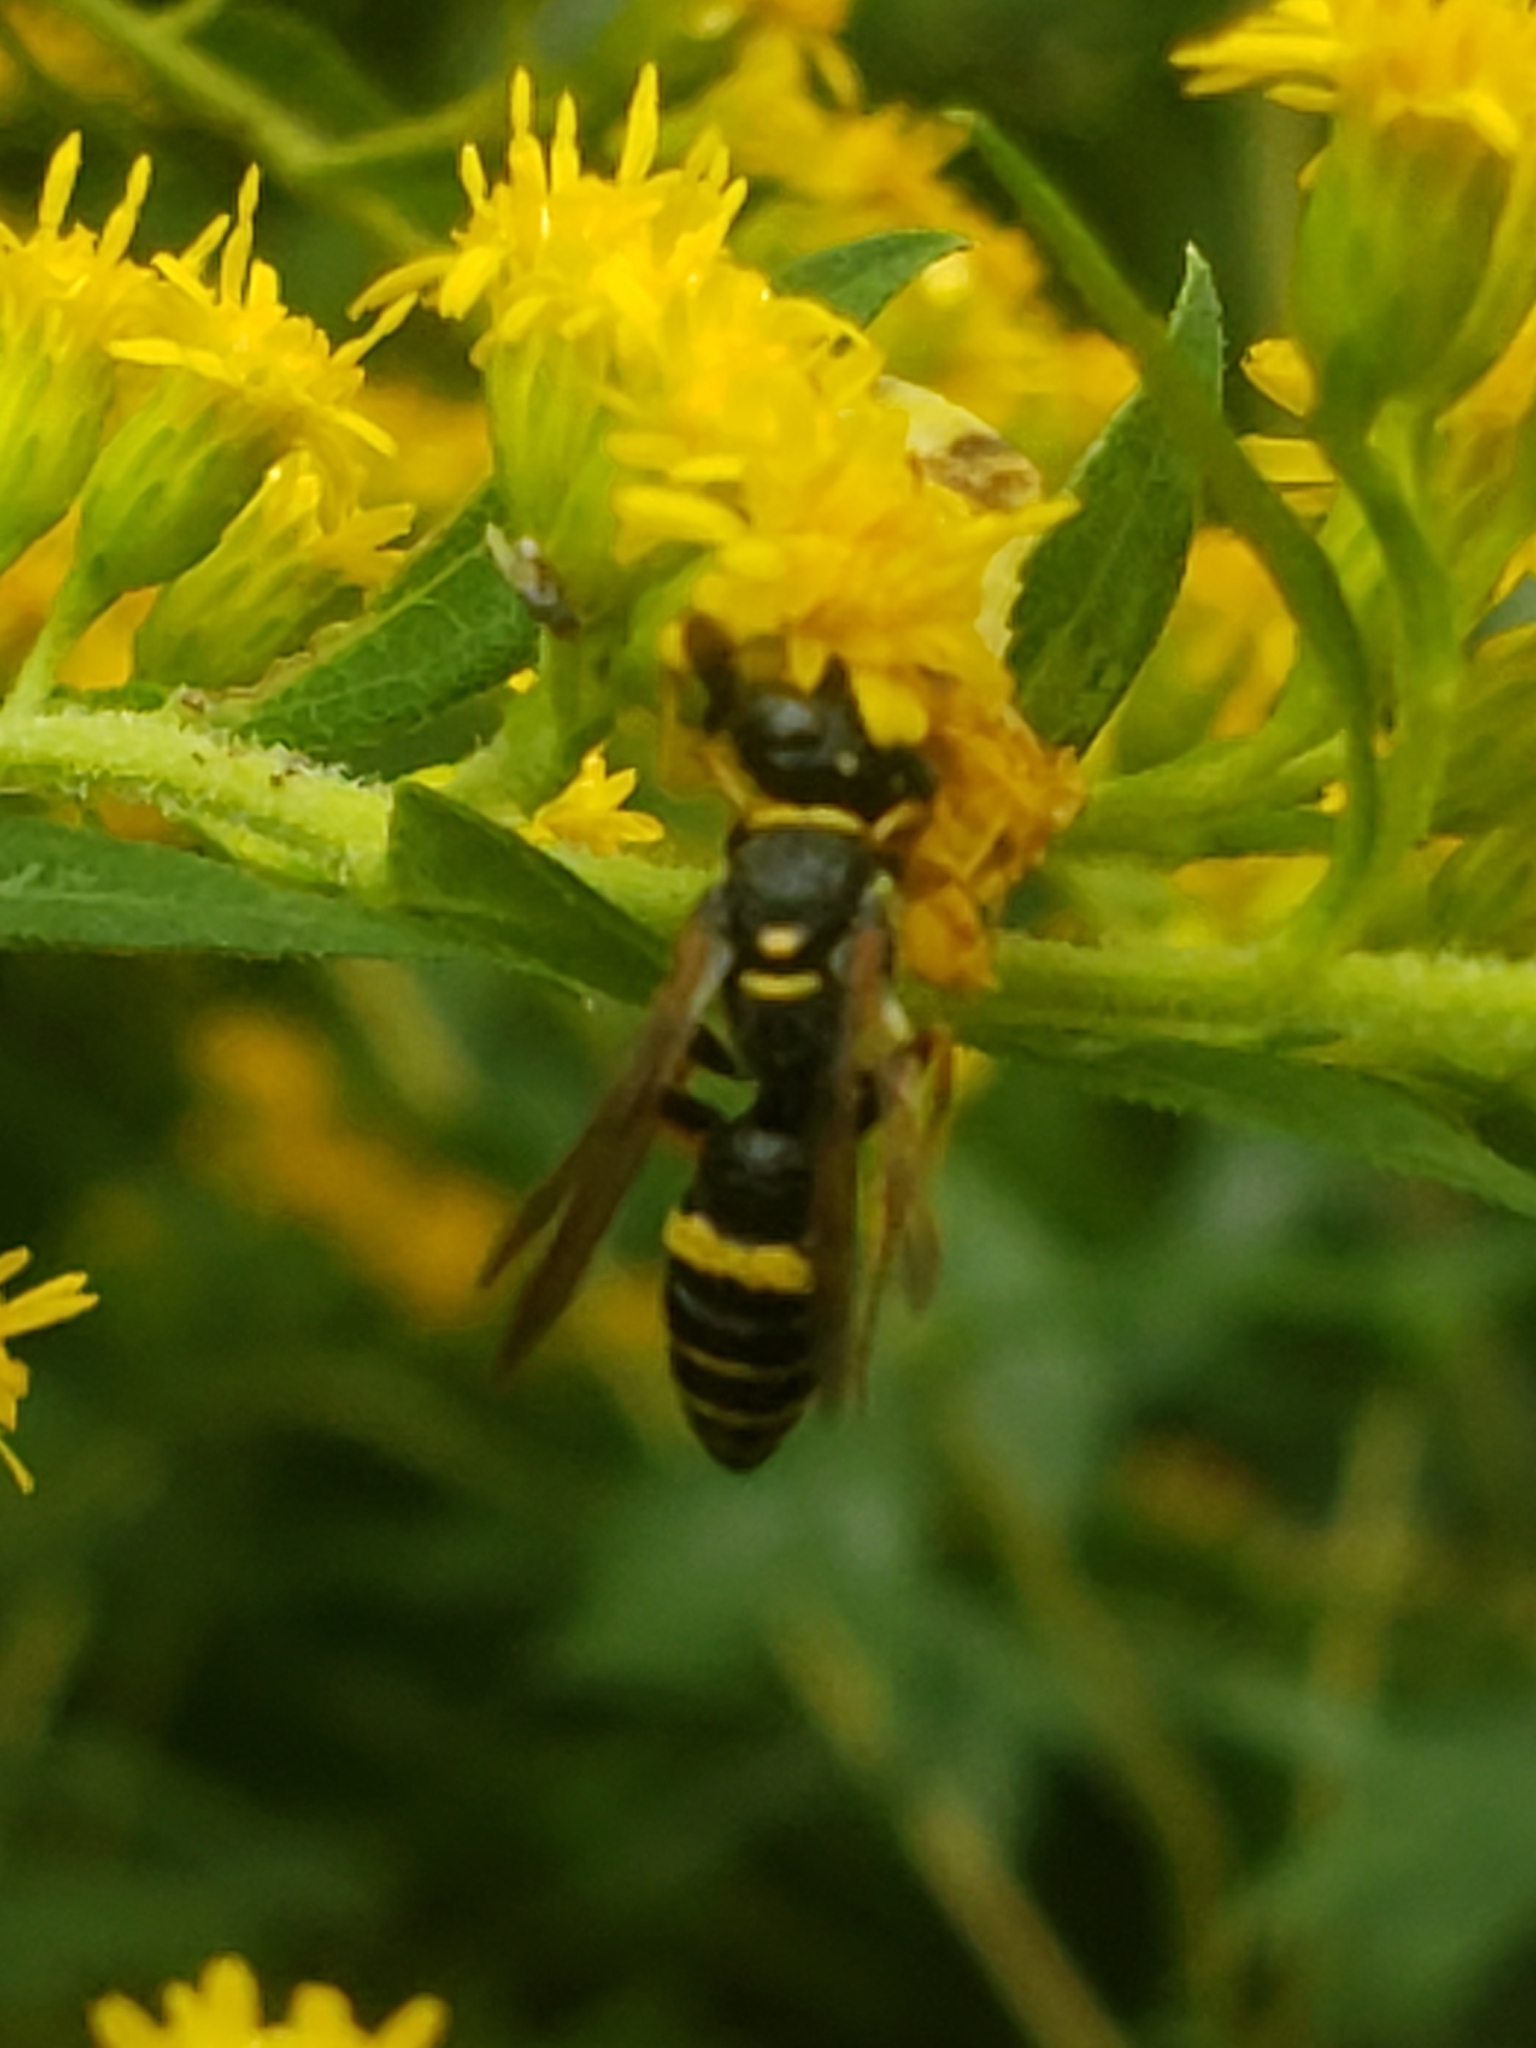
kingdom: Animalia
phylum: Arthropoda
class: Insecta
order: Hymenoptera
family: Crabronidae
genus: Philanthus
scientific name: Philanthus gibbosus
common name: Humped beewolf
